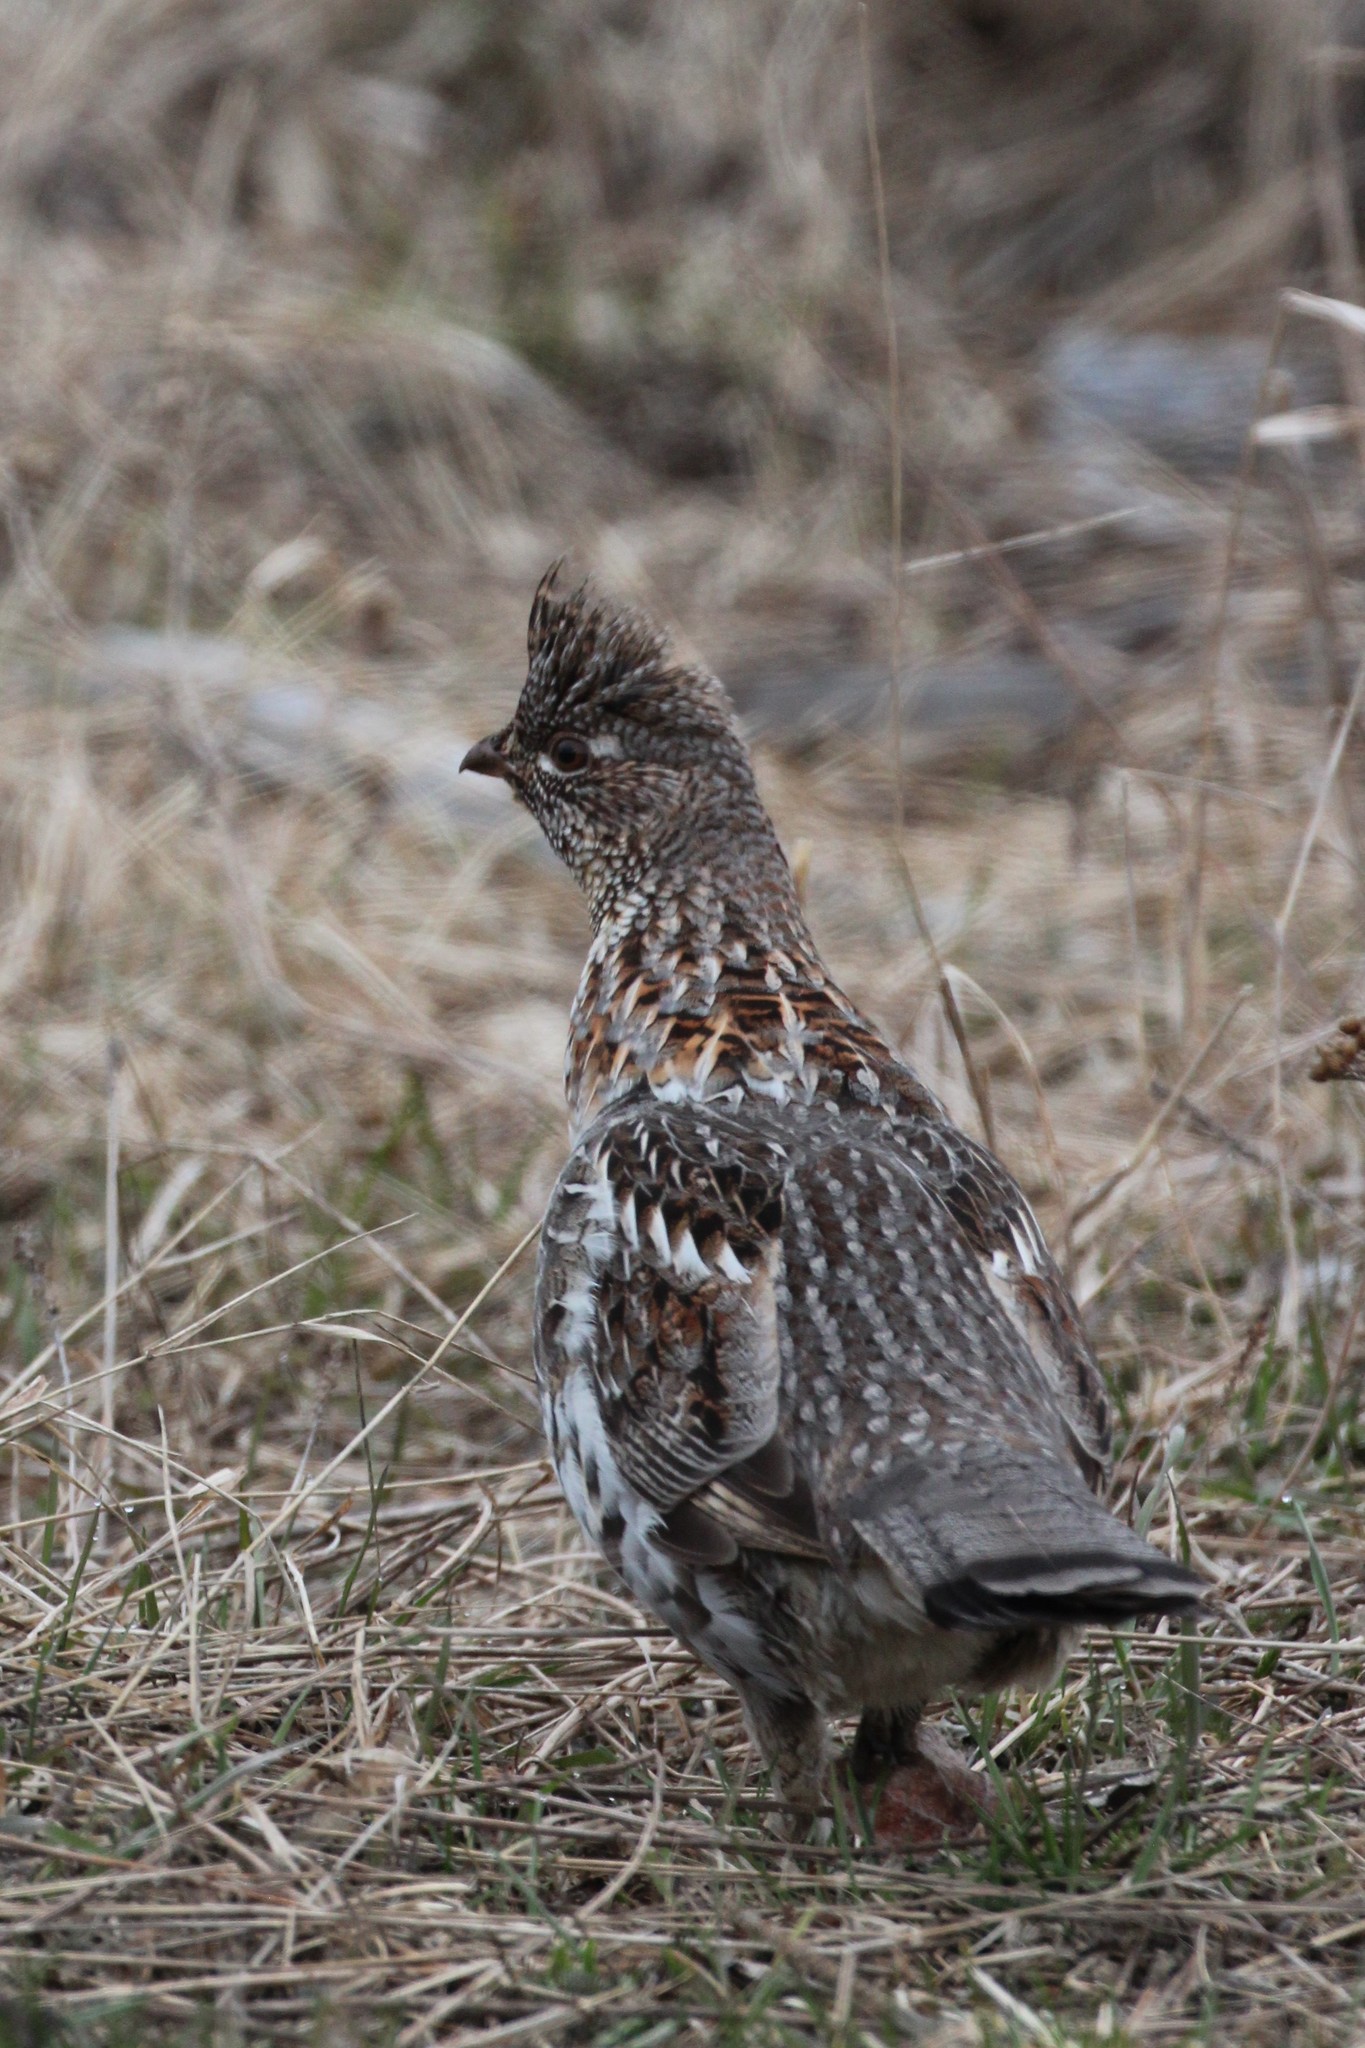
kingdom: Animalia
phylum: Chordata
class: Aves
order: Galliformes
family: Phasianidae
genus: Bonasa
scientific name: Bonasa umbellus
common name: Ruffed grouse
